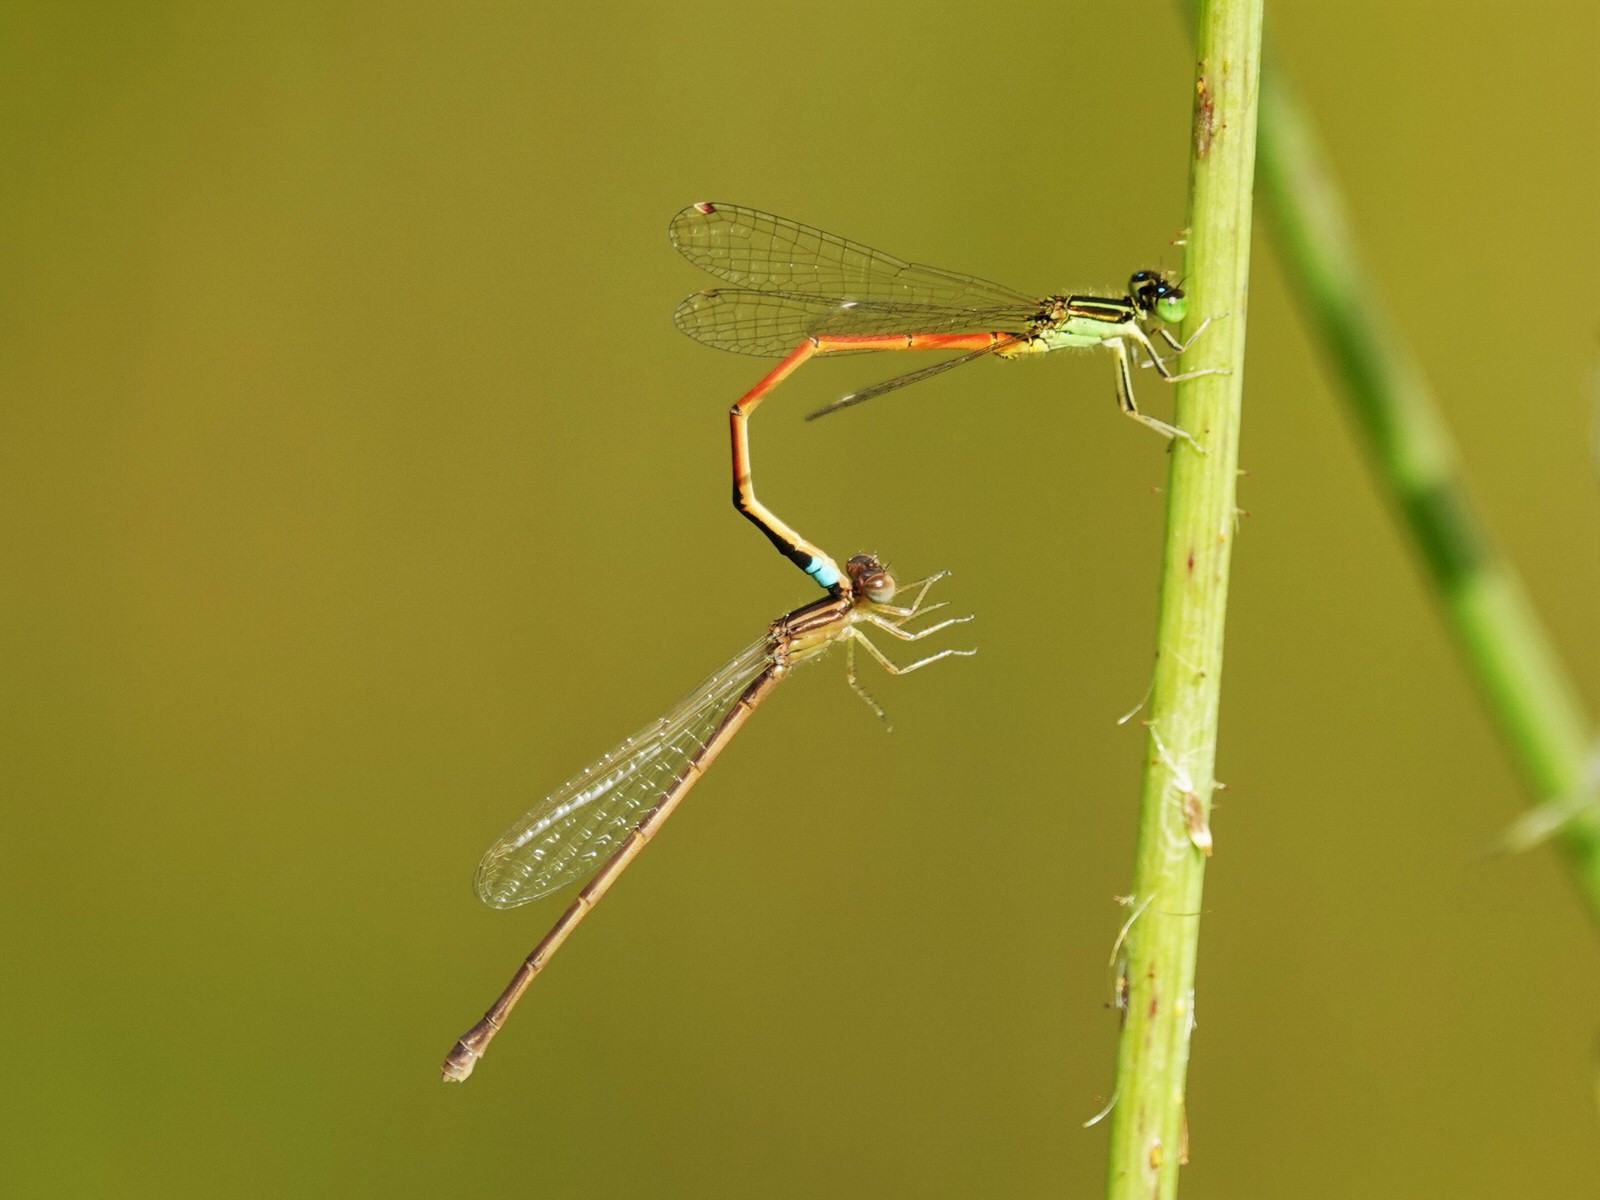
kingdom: Animalia
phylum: Arthropoda
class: Insecta
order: Odonata
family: Coenagrionidae
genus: Ischnura
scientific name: Ischnura aurora
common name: Gossamer damselfly
